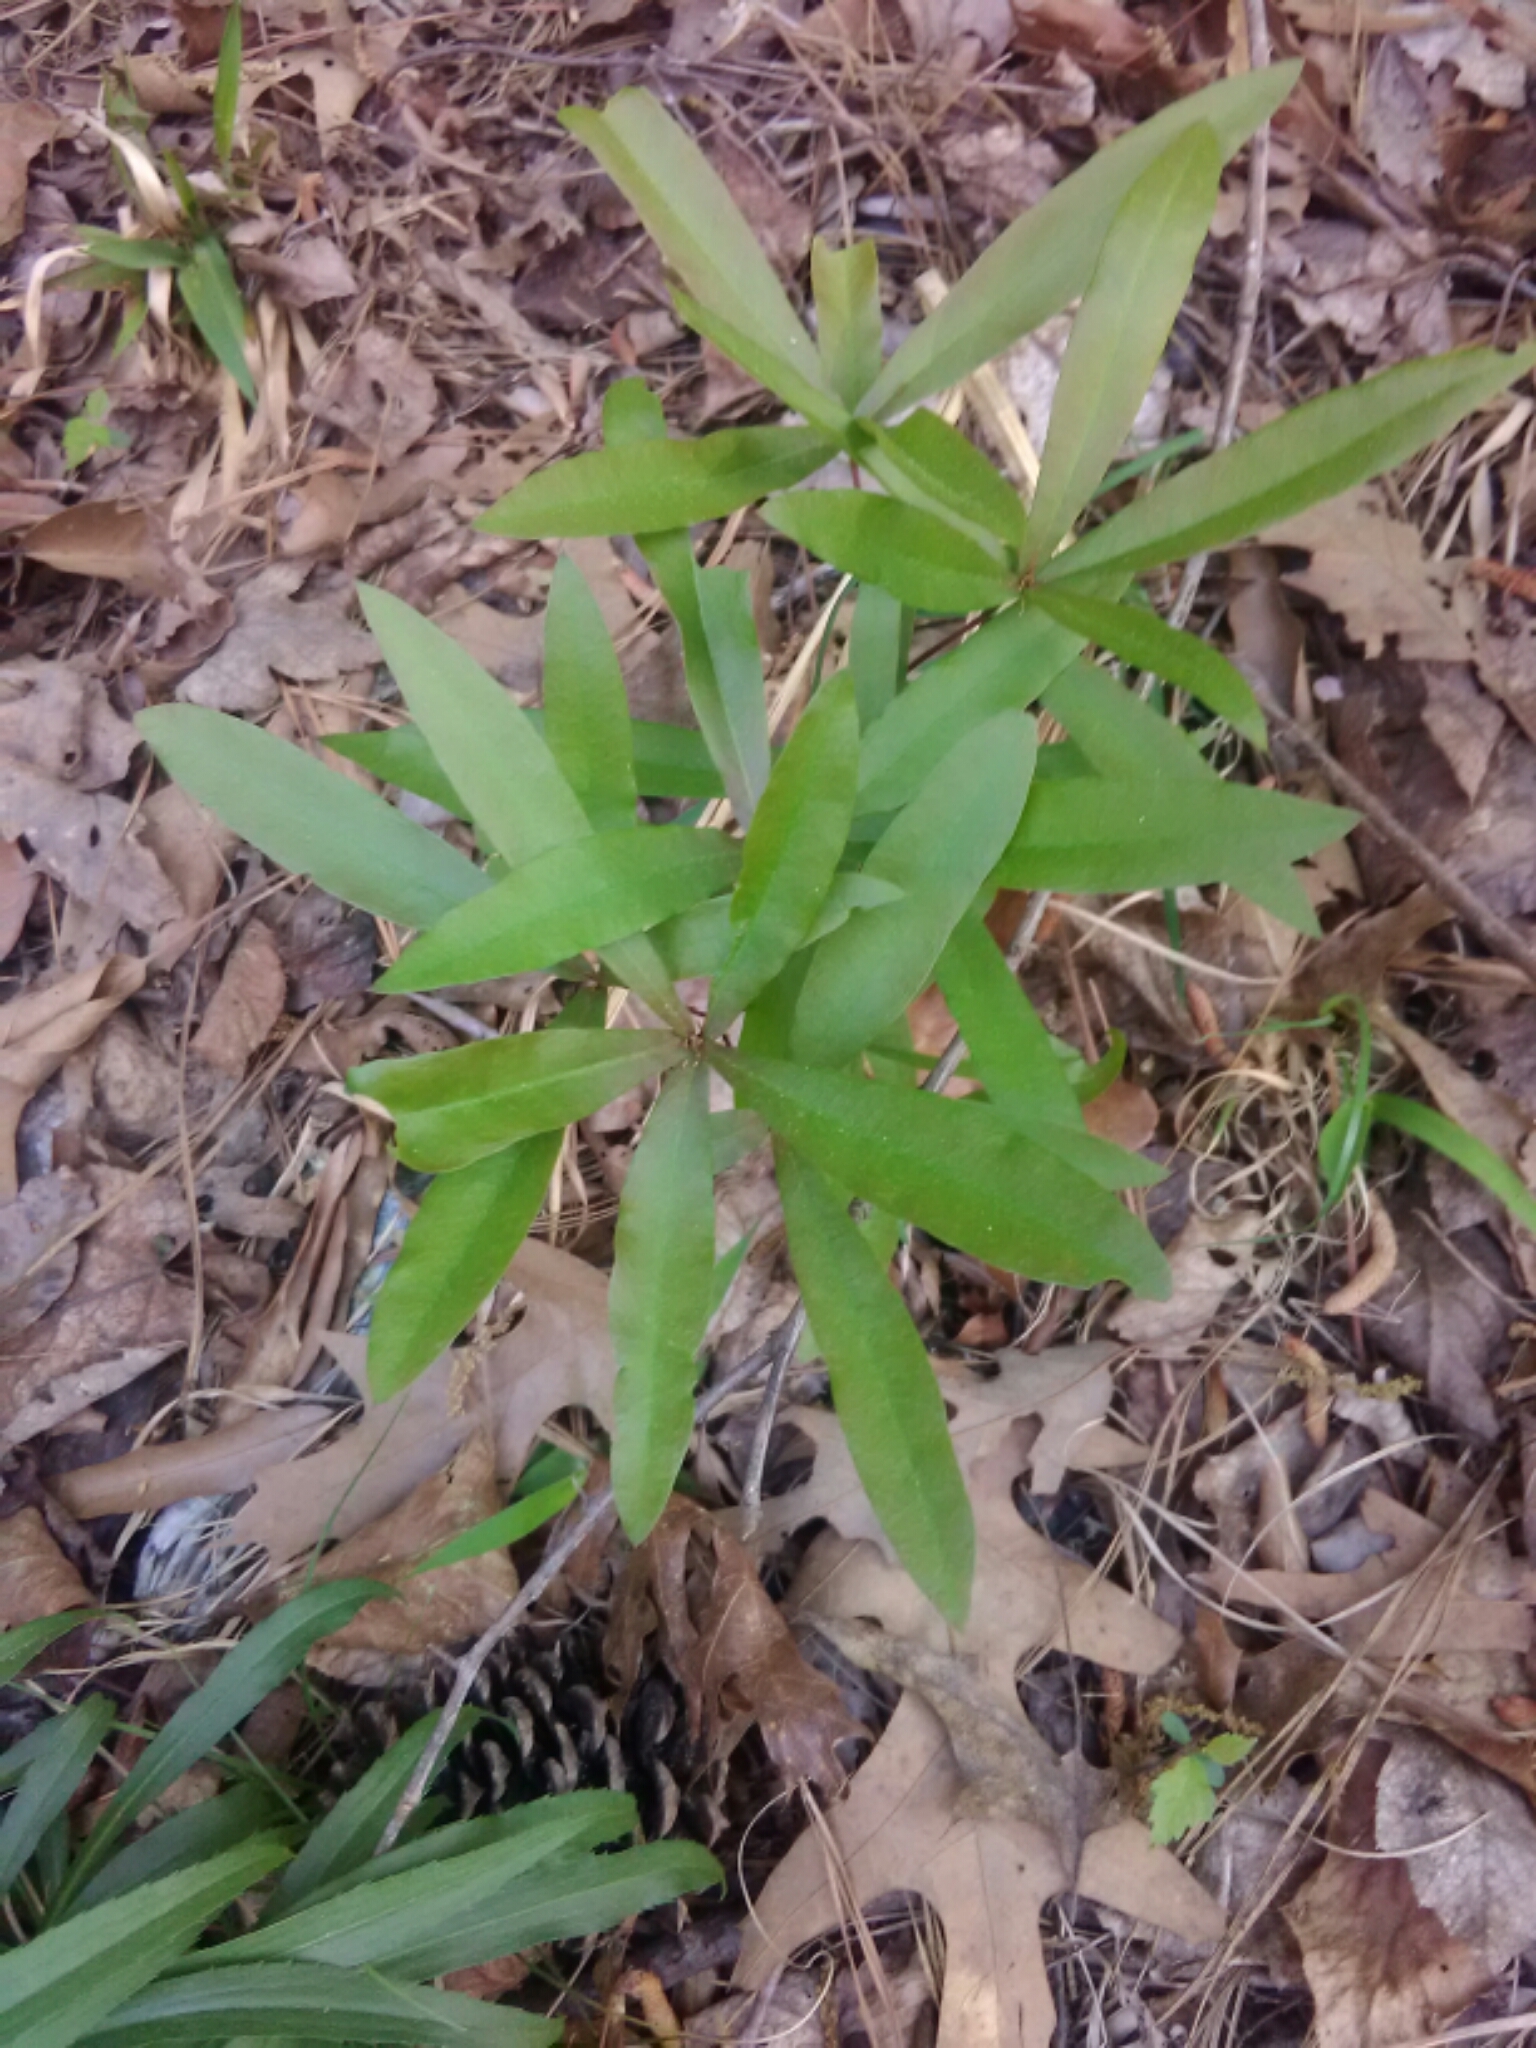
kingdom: Plantae
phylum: Tracheophyta
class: Magnoliopsida
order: Fagales
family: Fagaceae
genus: Quercus
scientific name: Quercus phellos
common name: Willow oak
